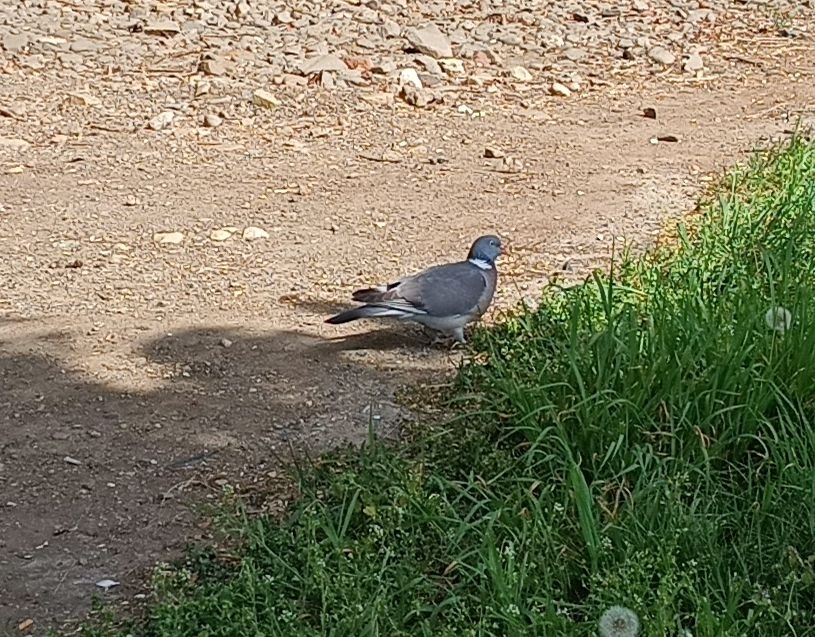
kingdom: Animalia
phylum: Chordata
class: Aves
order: Columbiformes
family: Columbidae
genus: Columba
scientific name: Columba palumbus
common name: Common wood pigeon
